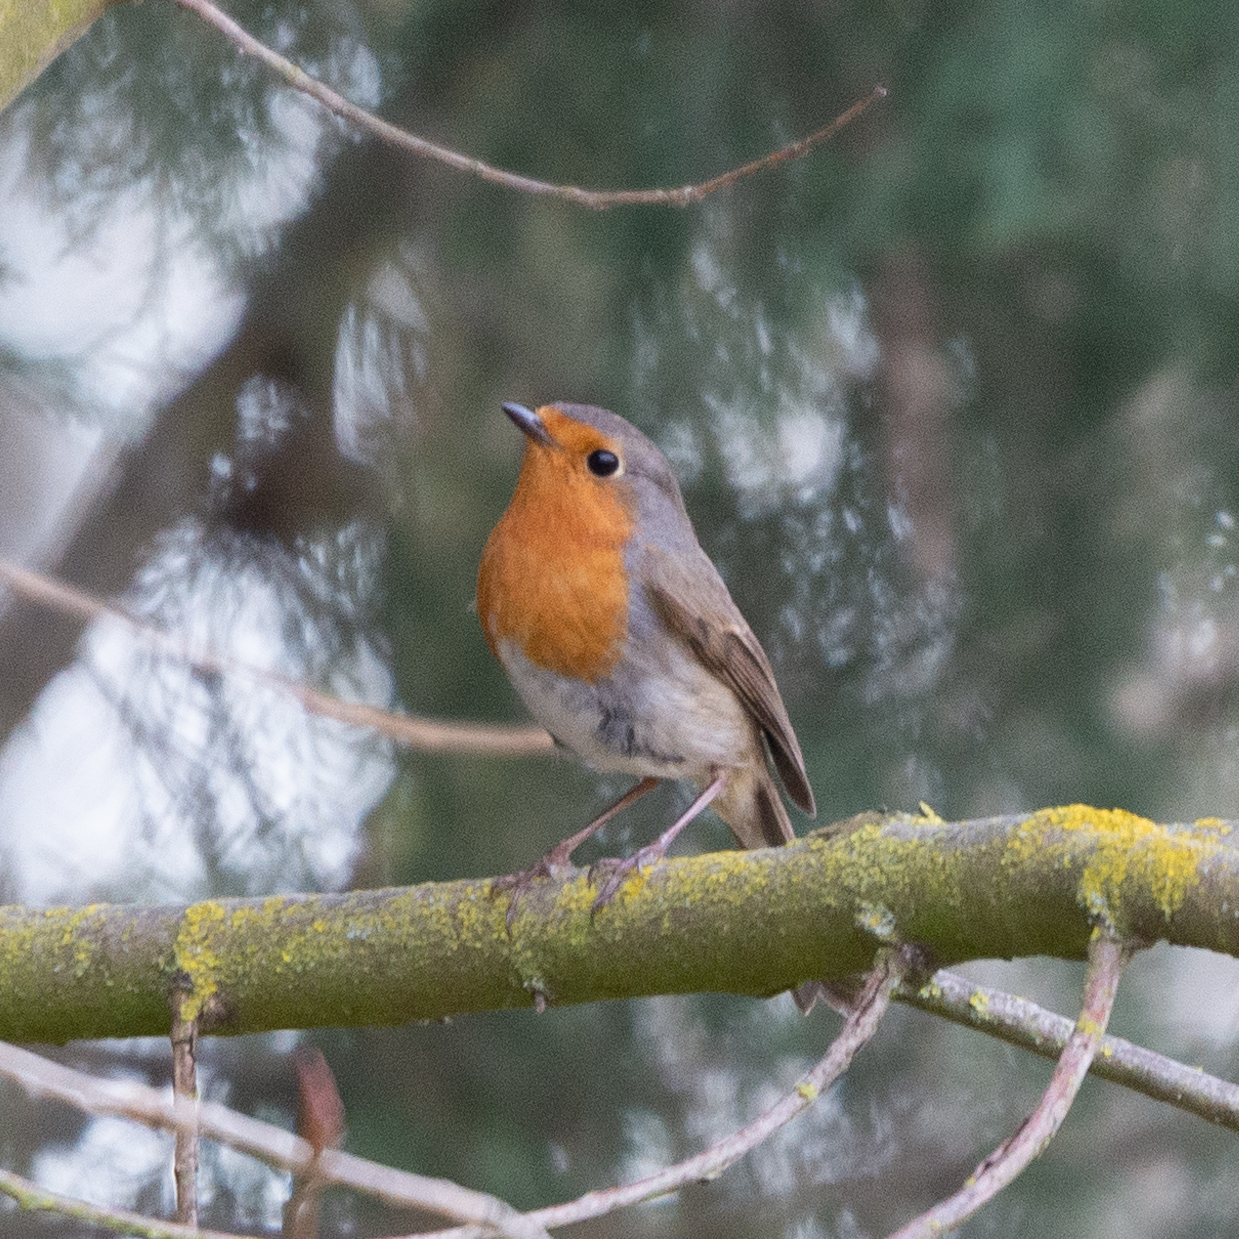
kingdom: Animalia
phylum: Chordata
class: Aves
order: Passeriformes
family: Muscicapidae
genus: Erithacus
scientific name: Erithacus rubecula
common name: European robin
